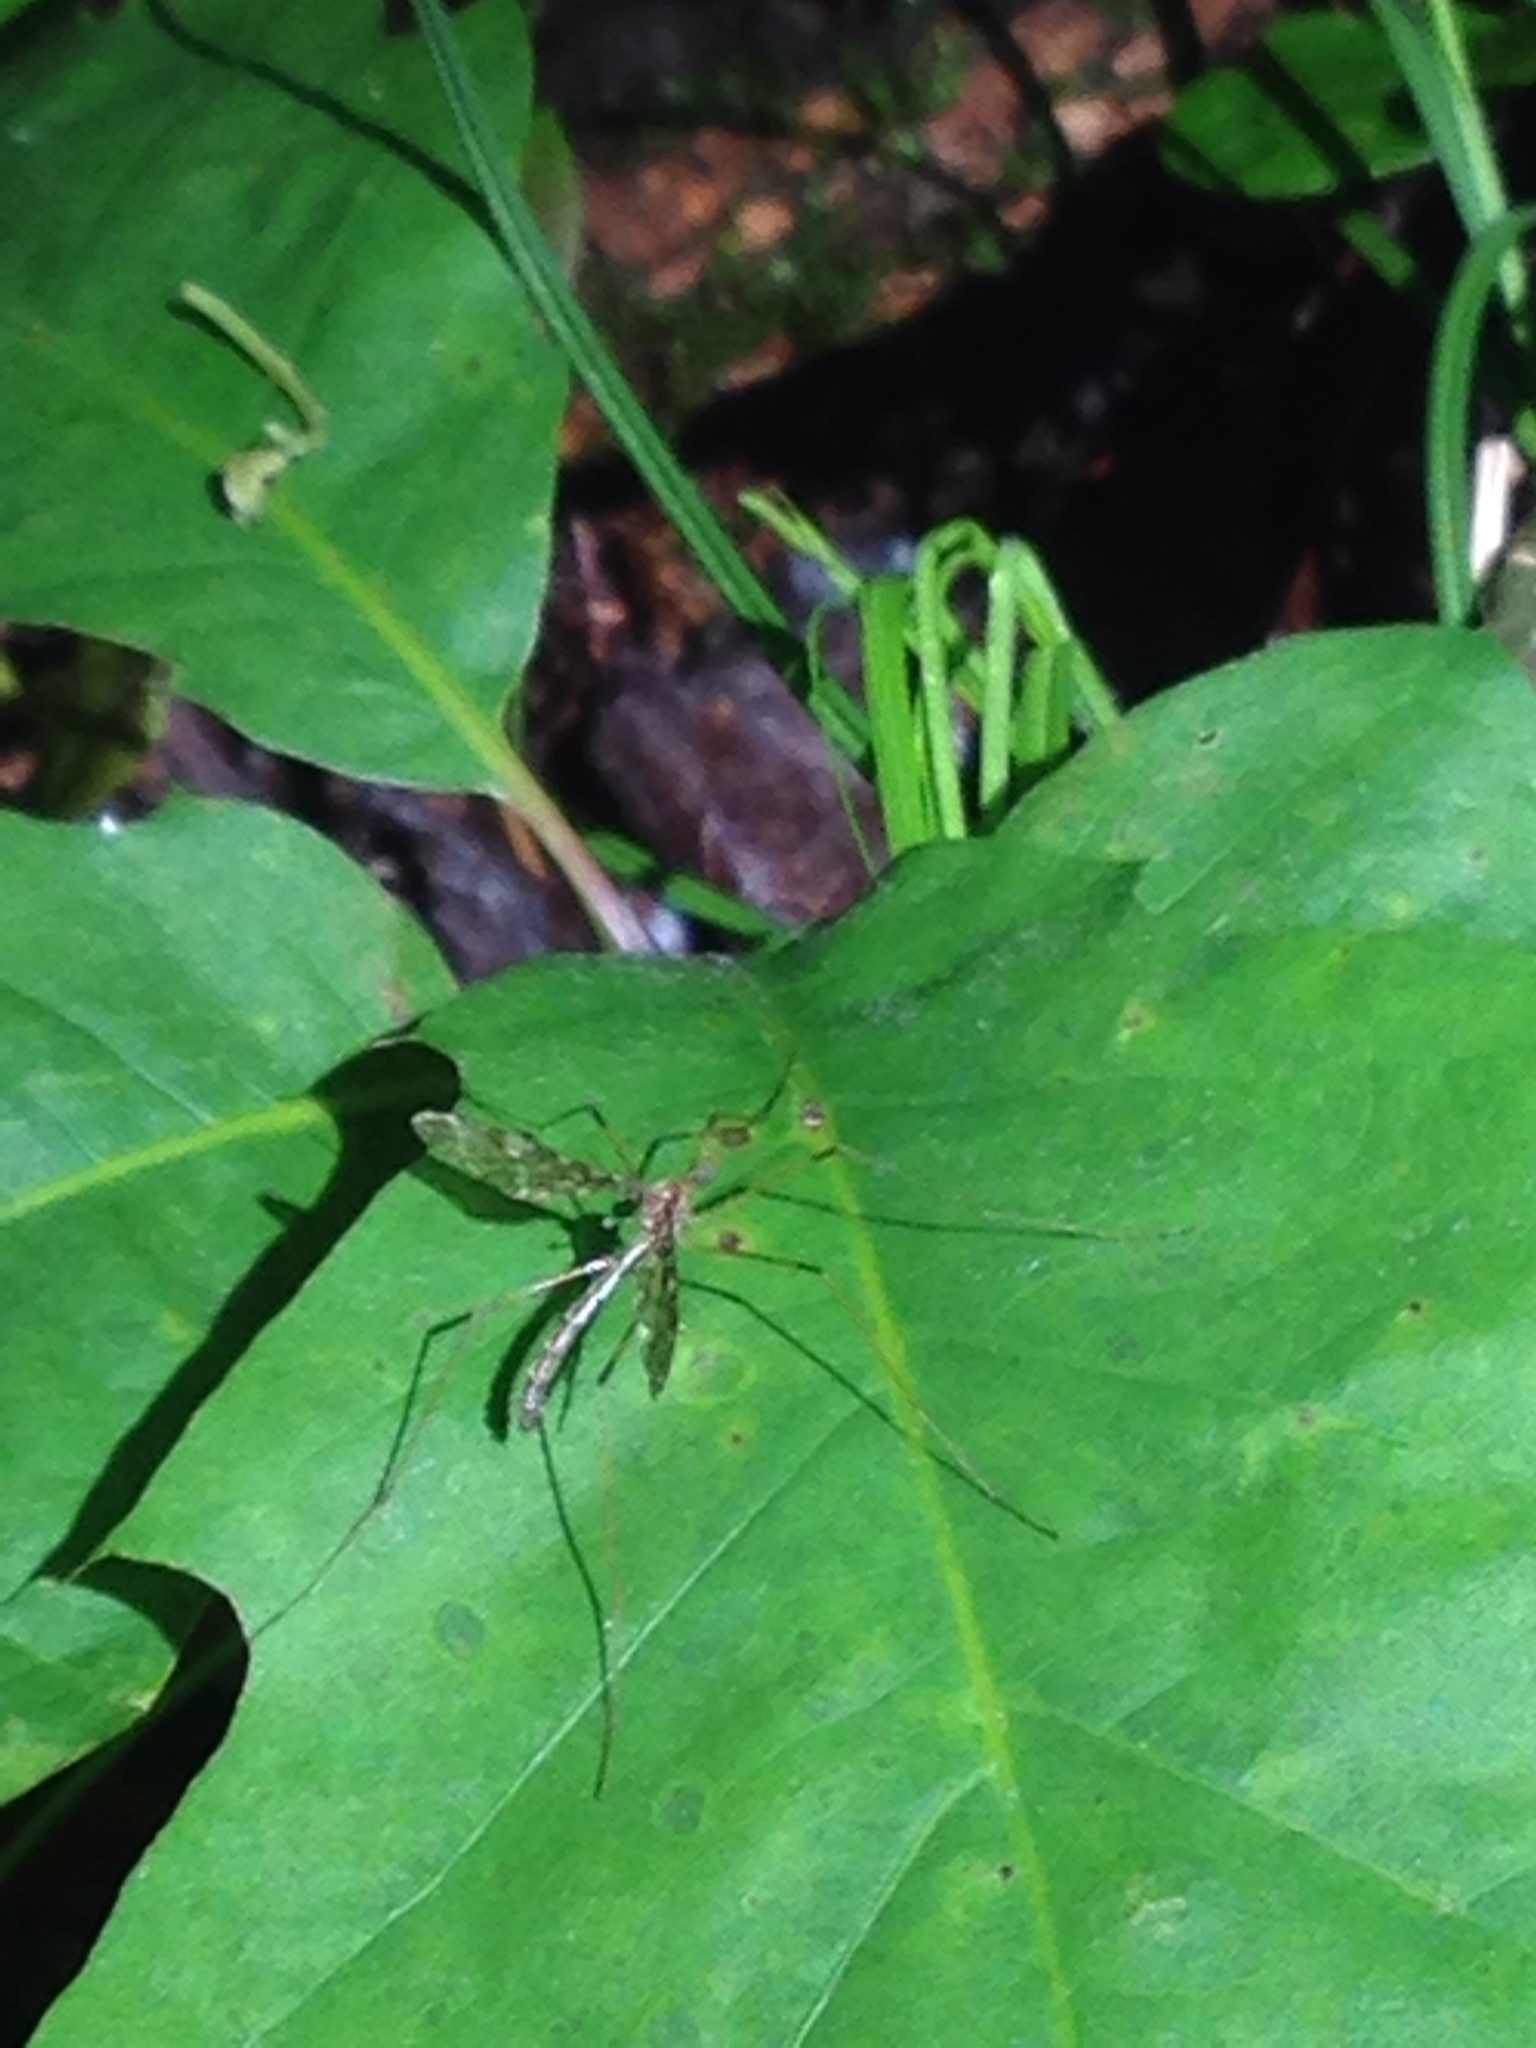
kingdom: Animalia
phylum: Arthropoda
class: Insecta
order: Diptera
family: Limoniidae
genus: Epiphragma
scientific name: Epiphragma fasciapenne
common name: Band-winged crane fly
